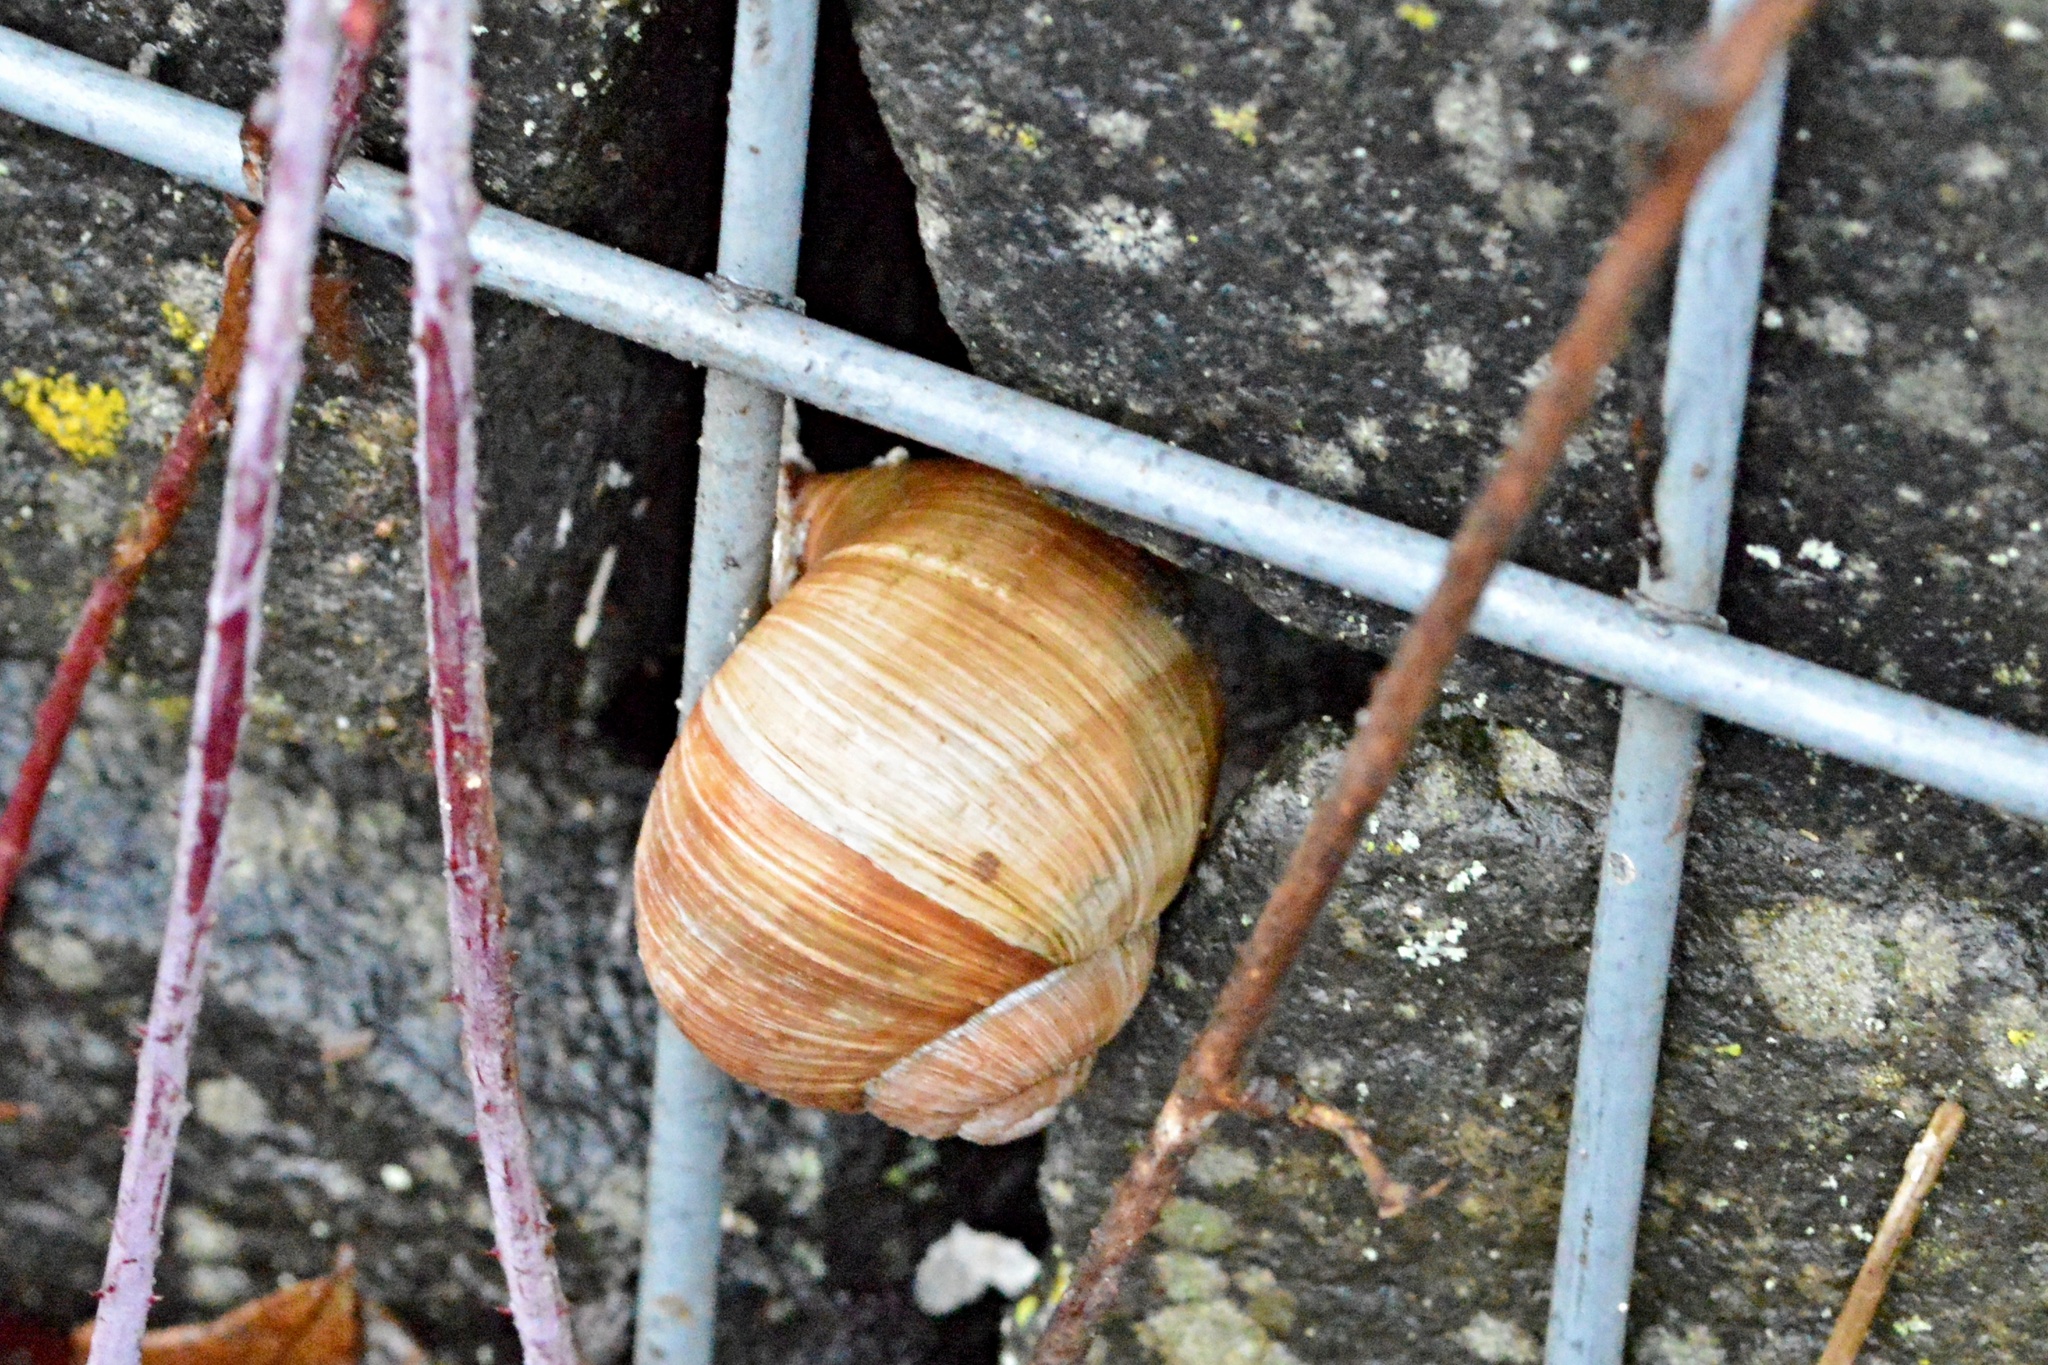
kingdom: Animalia
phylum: Mollusca
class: Gastropoda
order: Stylommatophora
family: Helicidae
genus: Helix
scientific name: Helix pomatia
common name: Roman snail
